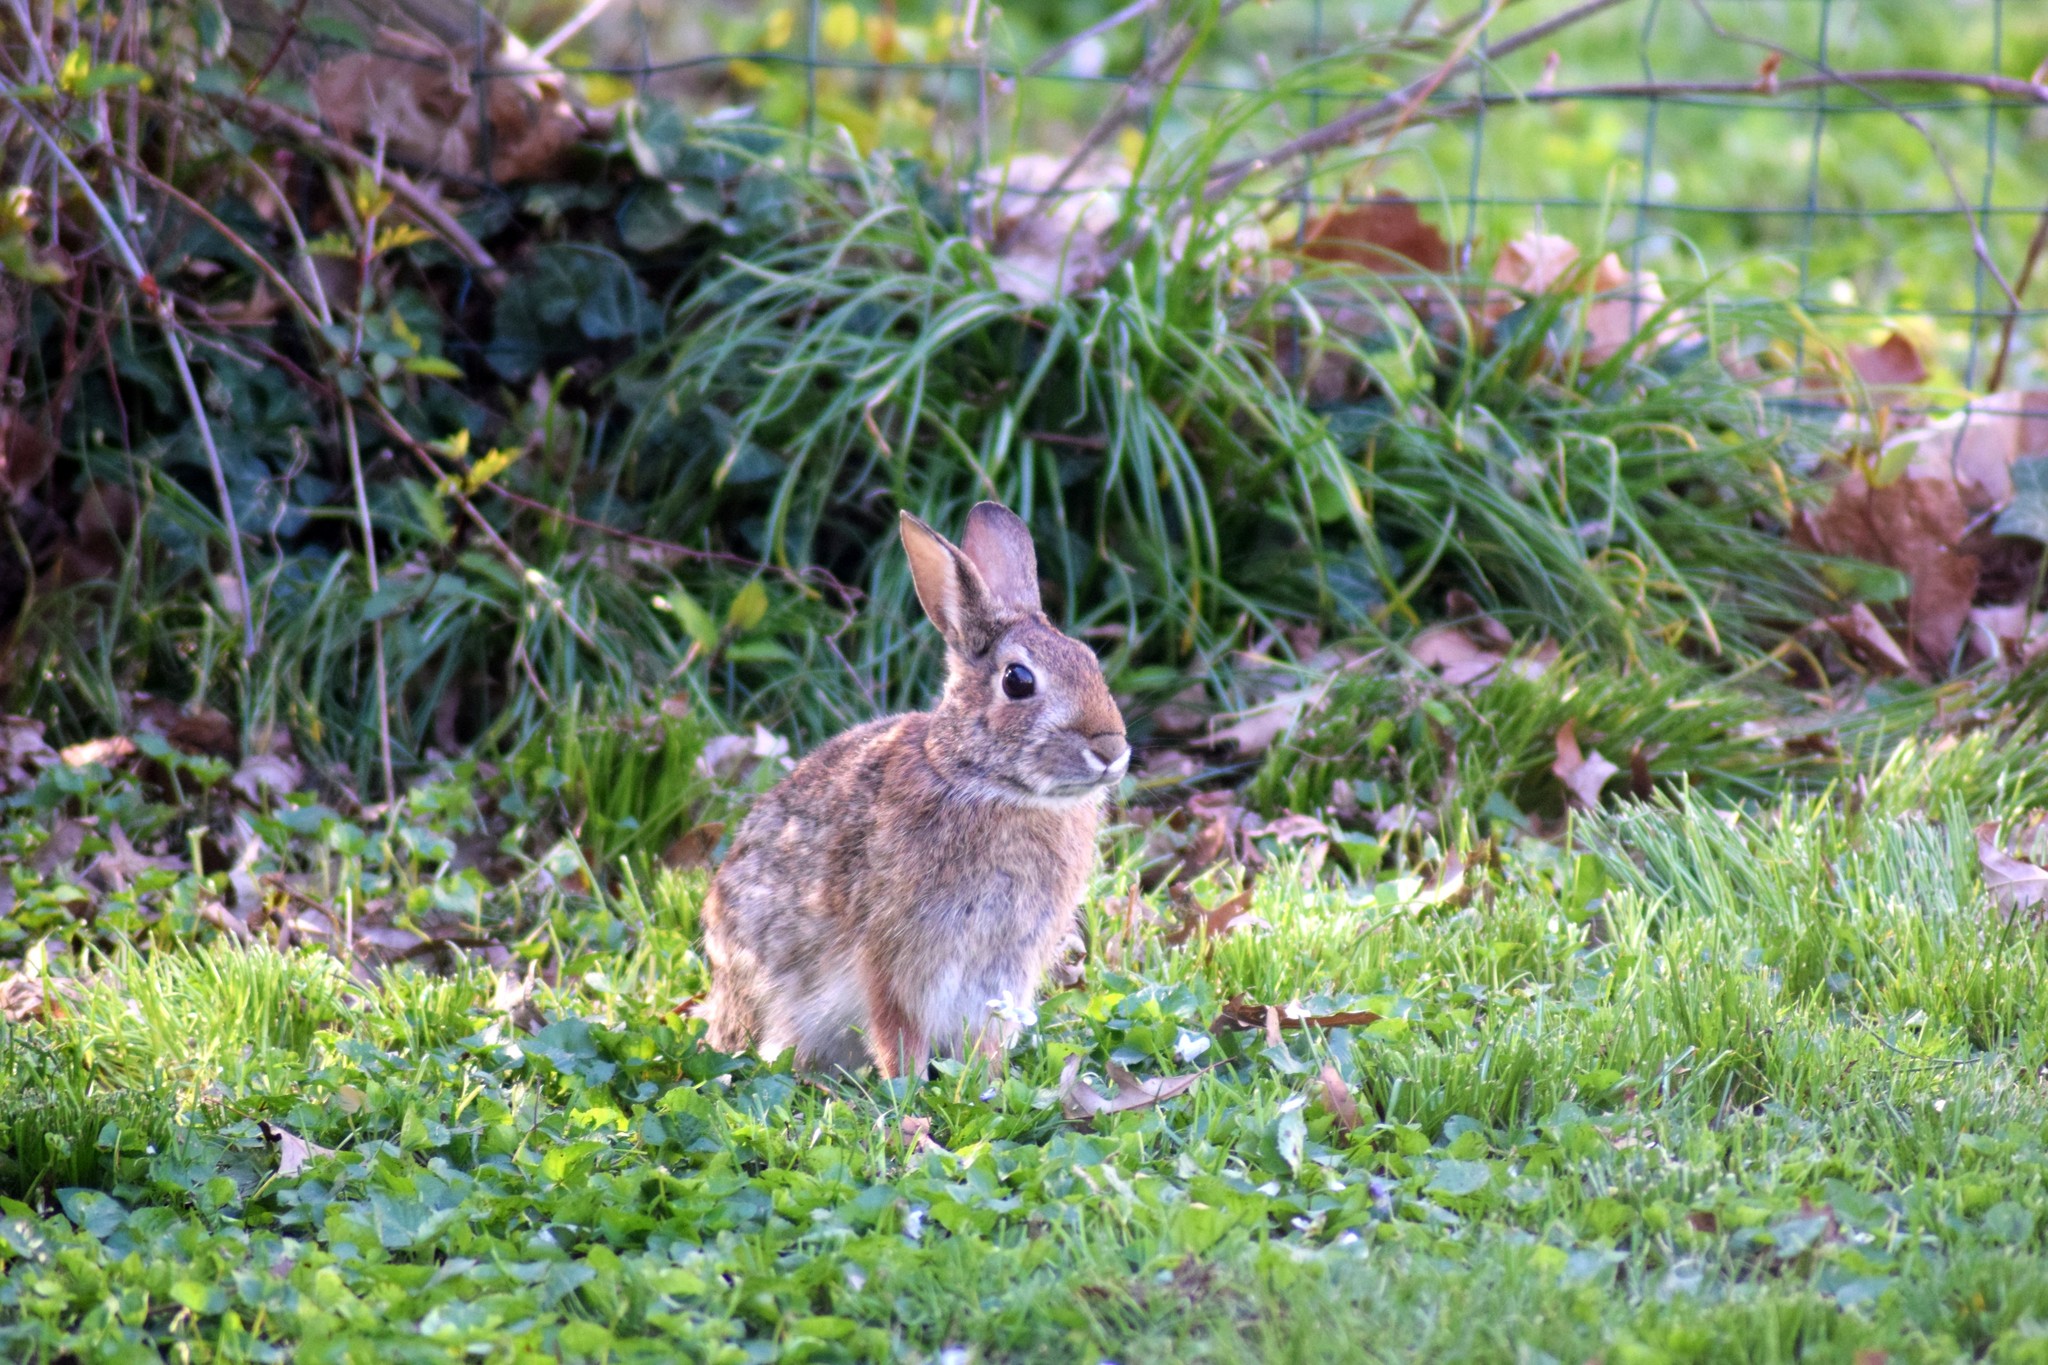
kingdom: Animalia
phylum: Chordata
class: Mammalia
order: Lagomorpha
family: Leporidae
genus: Sylvilagus
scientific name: Sylvilagus floridanus
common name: Eastern cottontail
